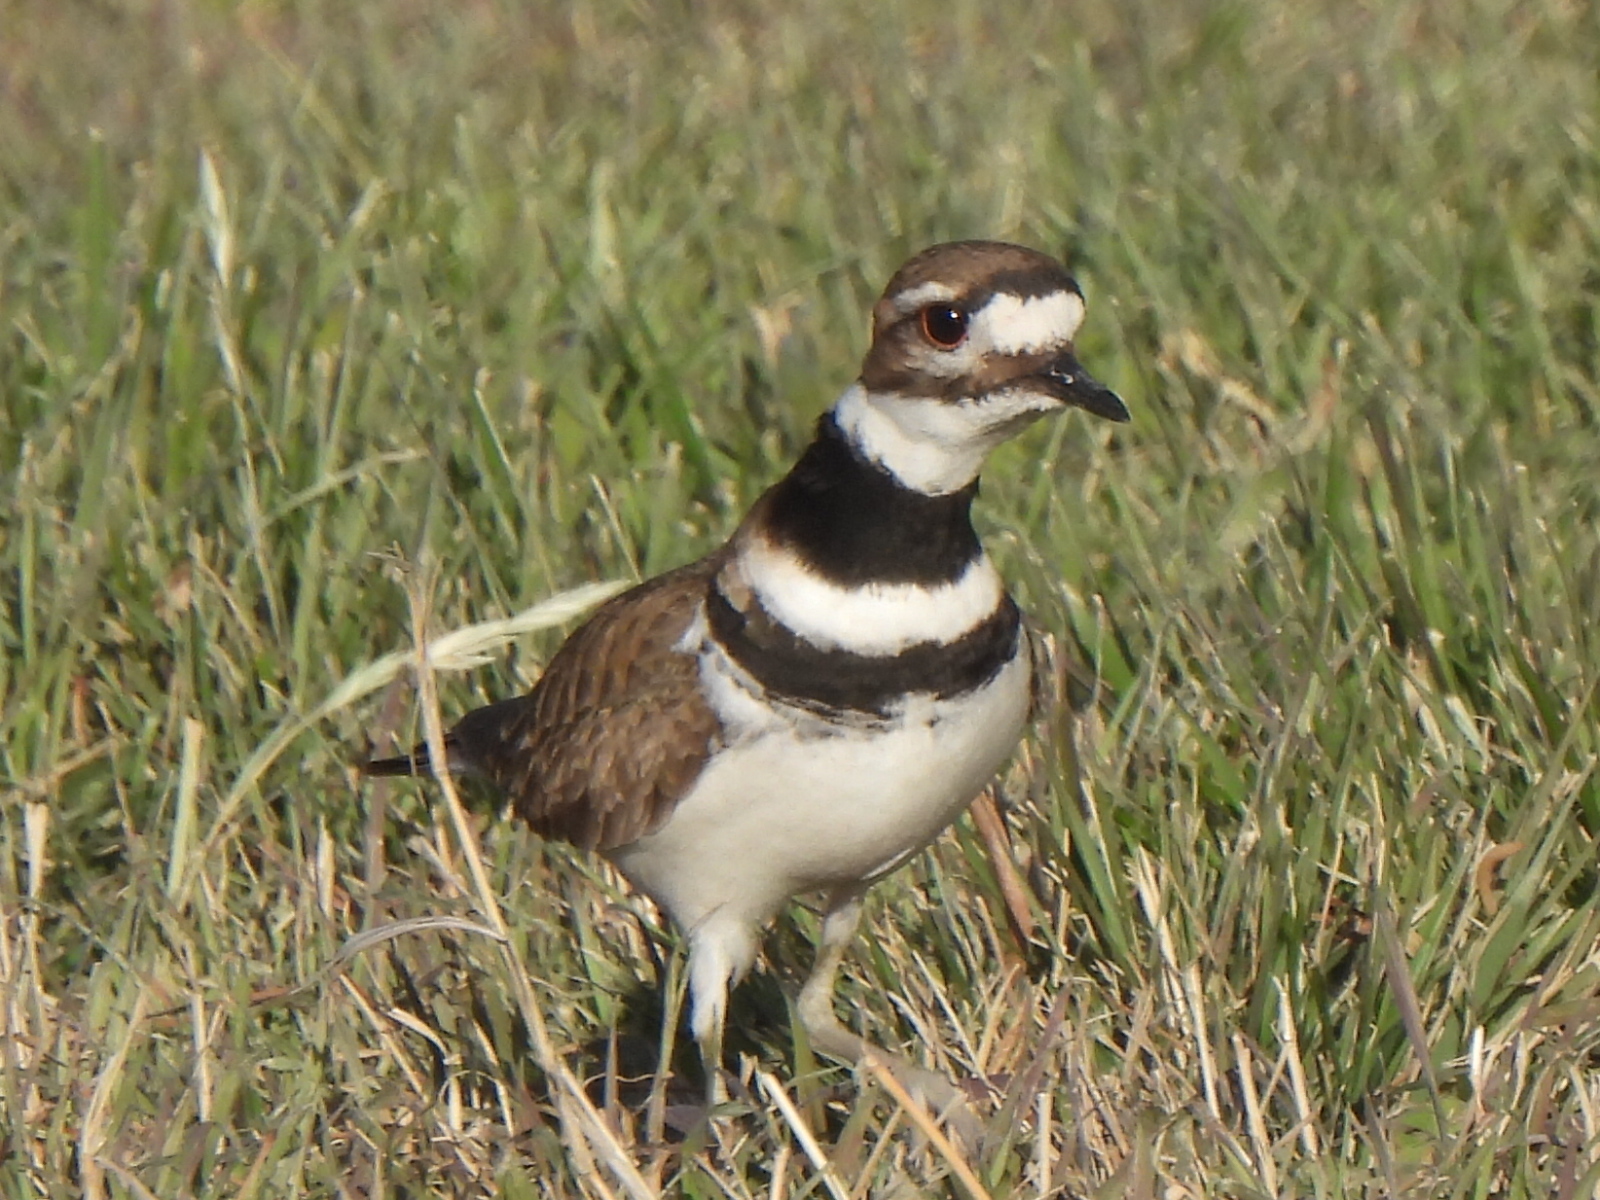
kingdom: Animalia
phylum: Chordata
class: Aves
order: Charadriiformes
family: Charadriidae
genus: Charadrius
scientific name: Charadrius vociferus
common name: Killdeer
